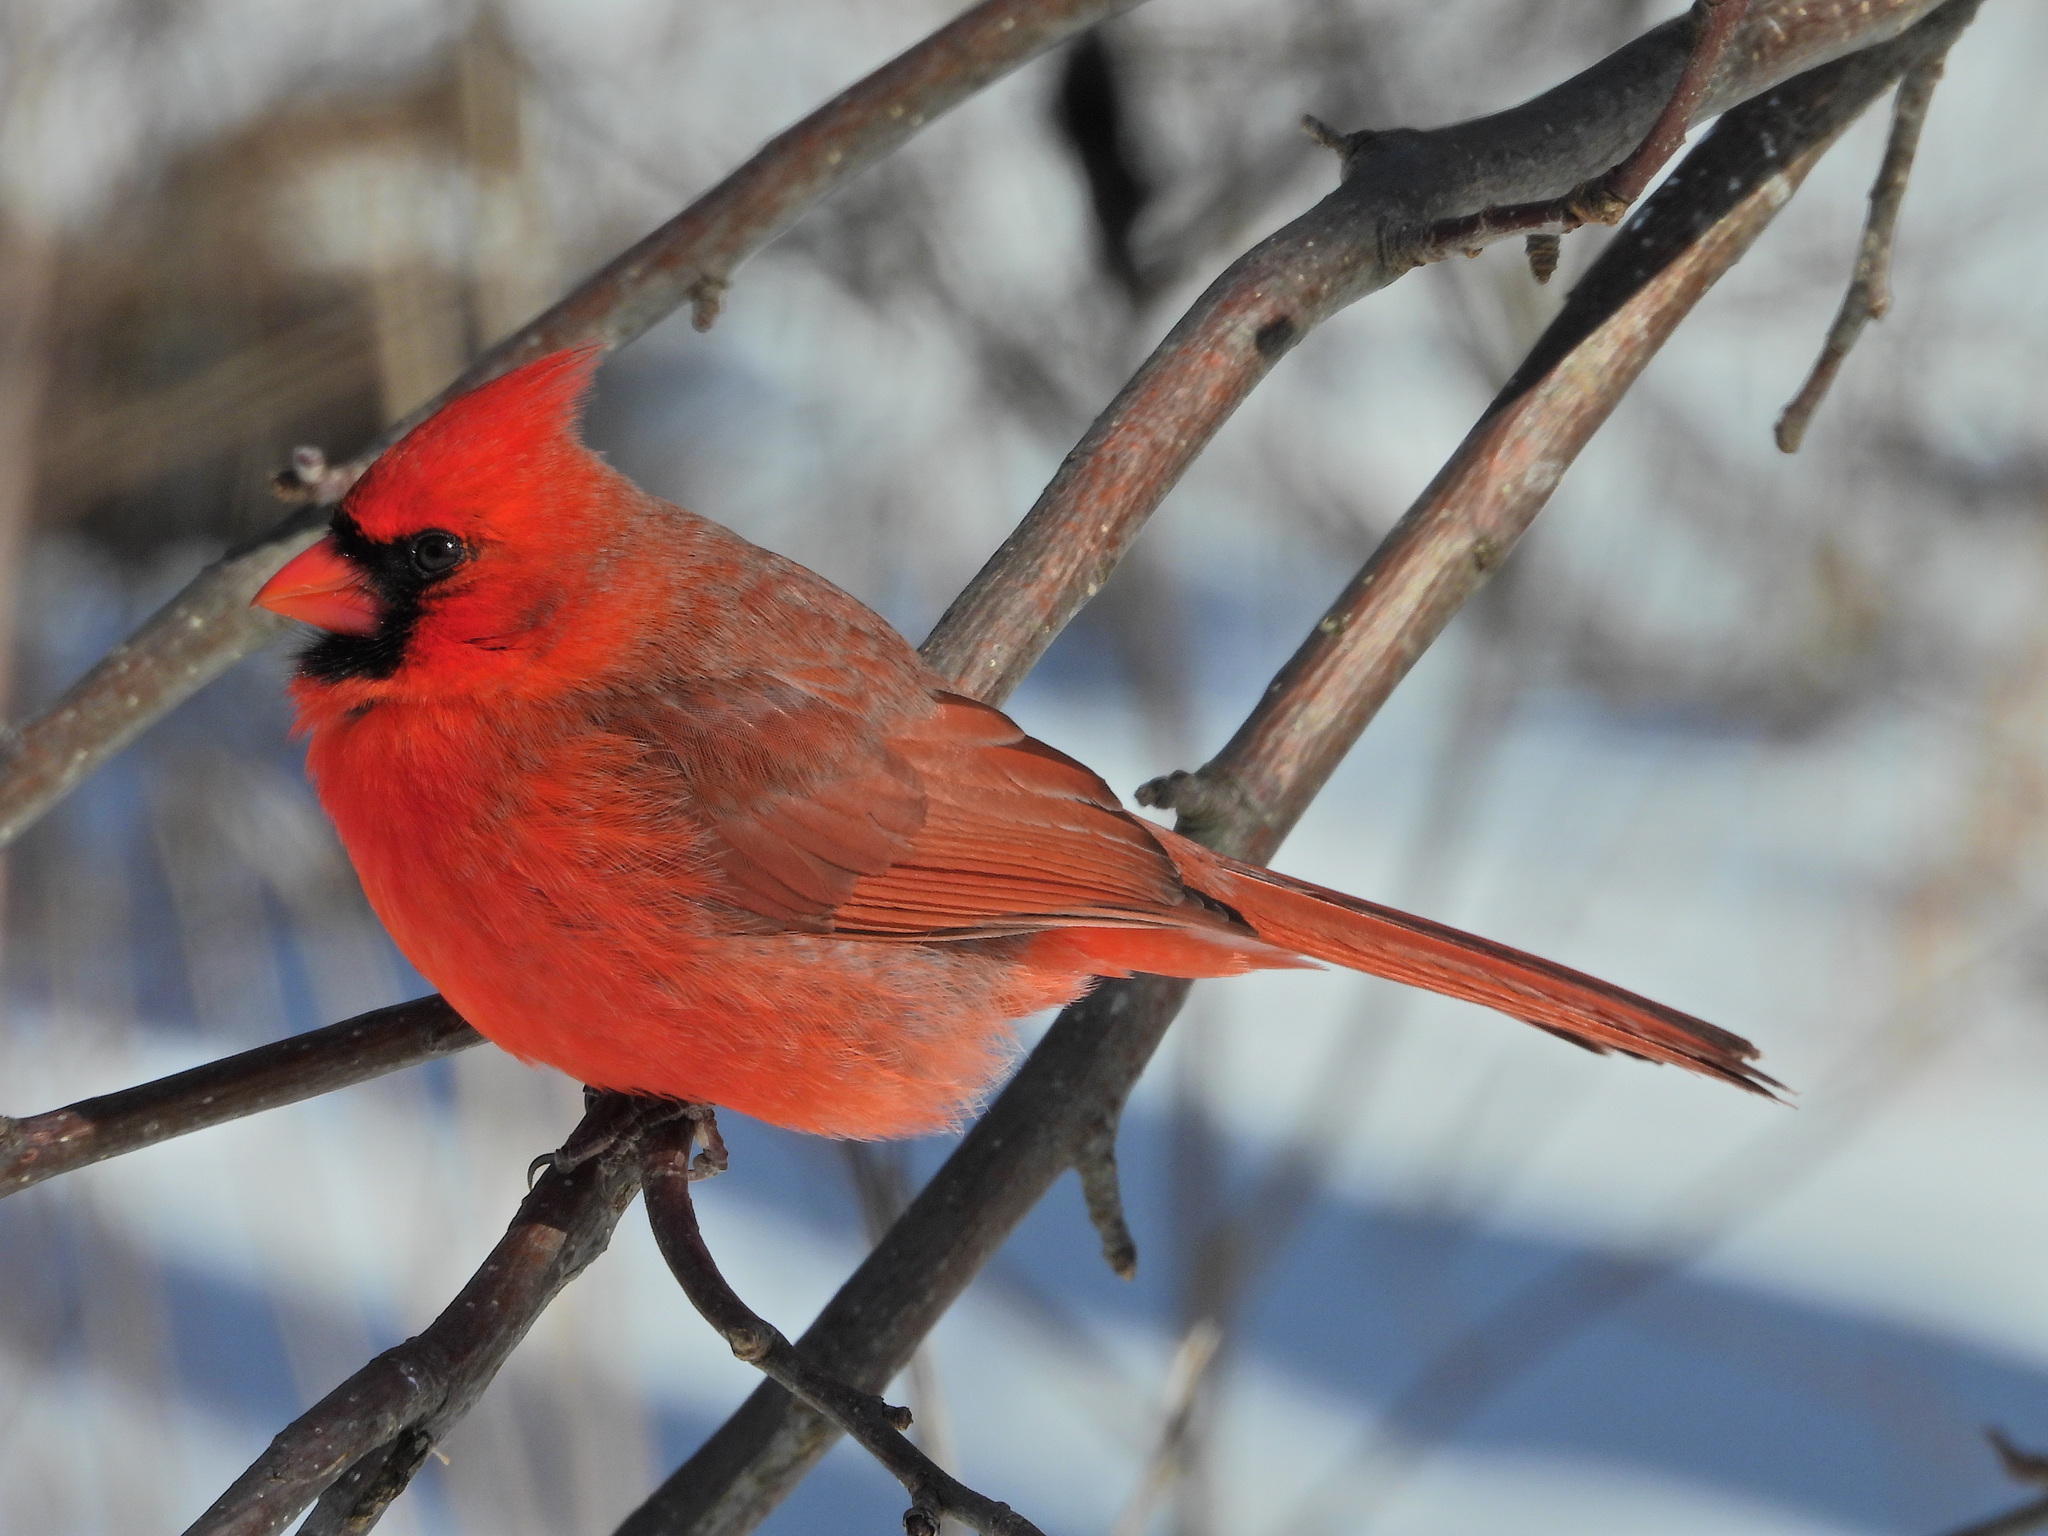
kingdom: Animalia
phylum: Chordata
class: Aves
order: Passeriformes
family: Cardinalidae
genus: Cardinalis
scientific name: Cardinalis cardinalis
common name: Northern cardinal
